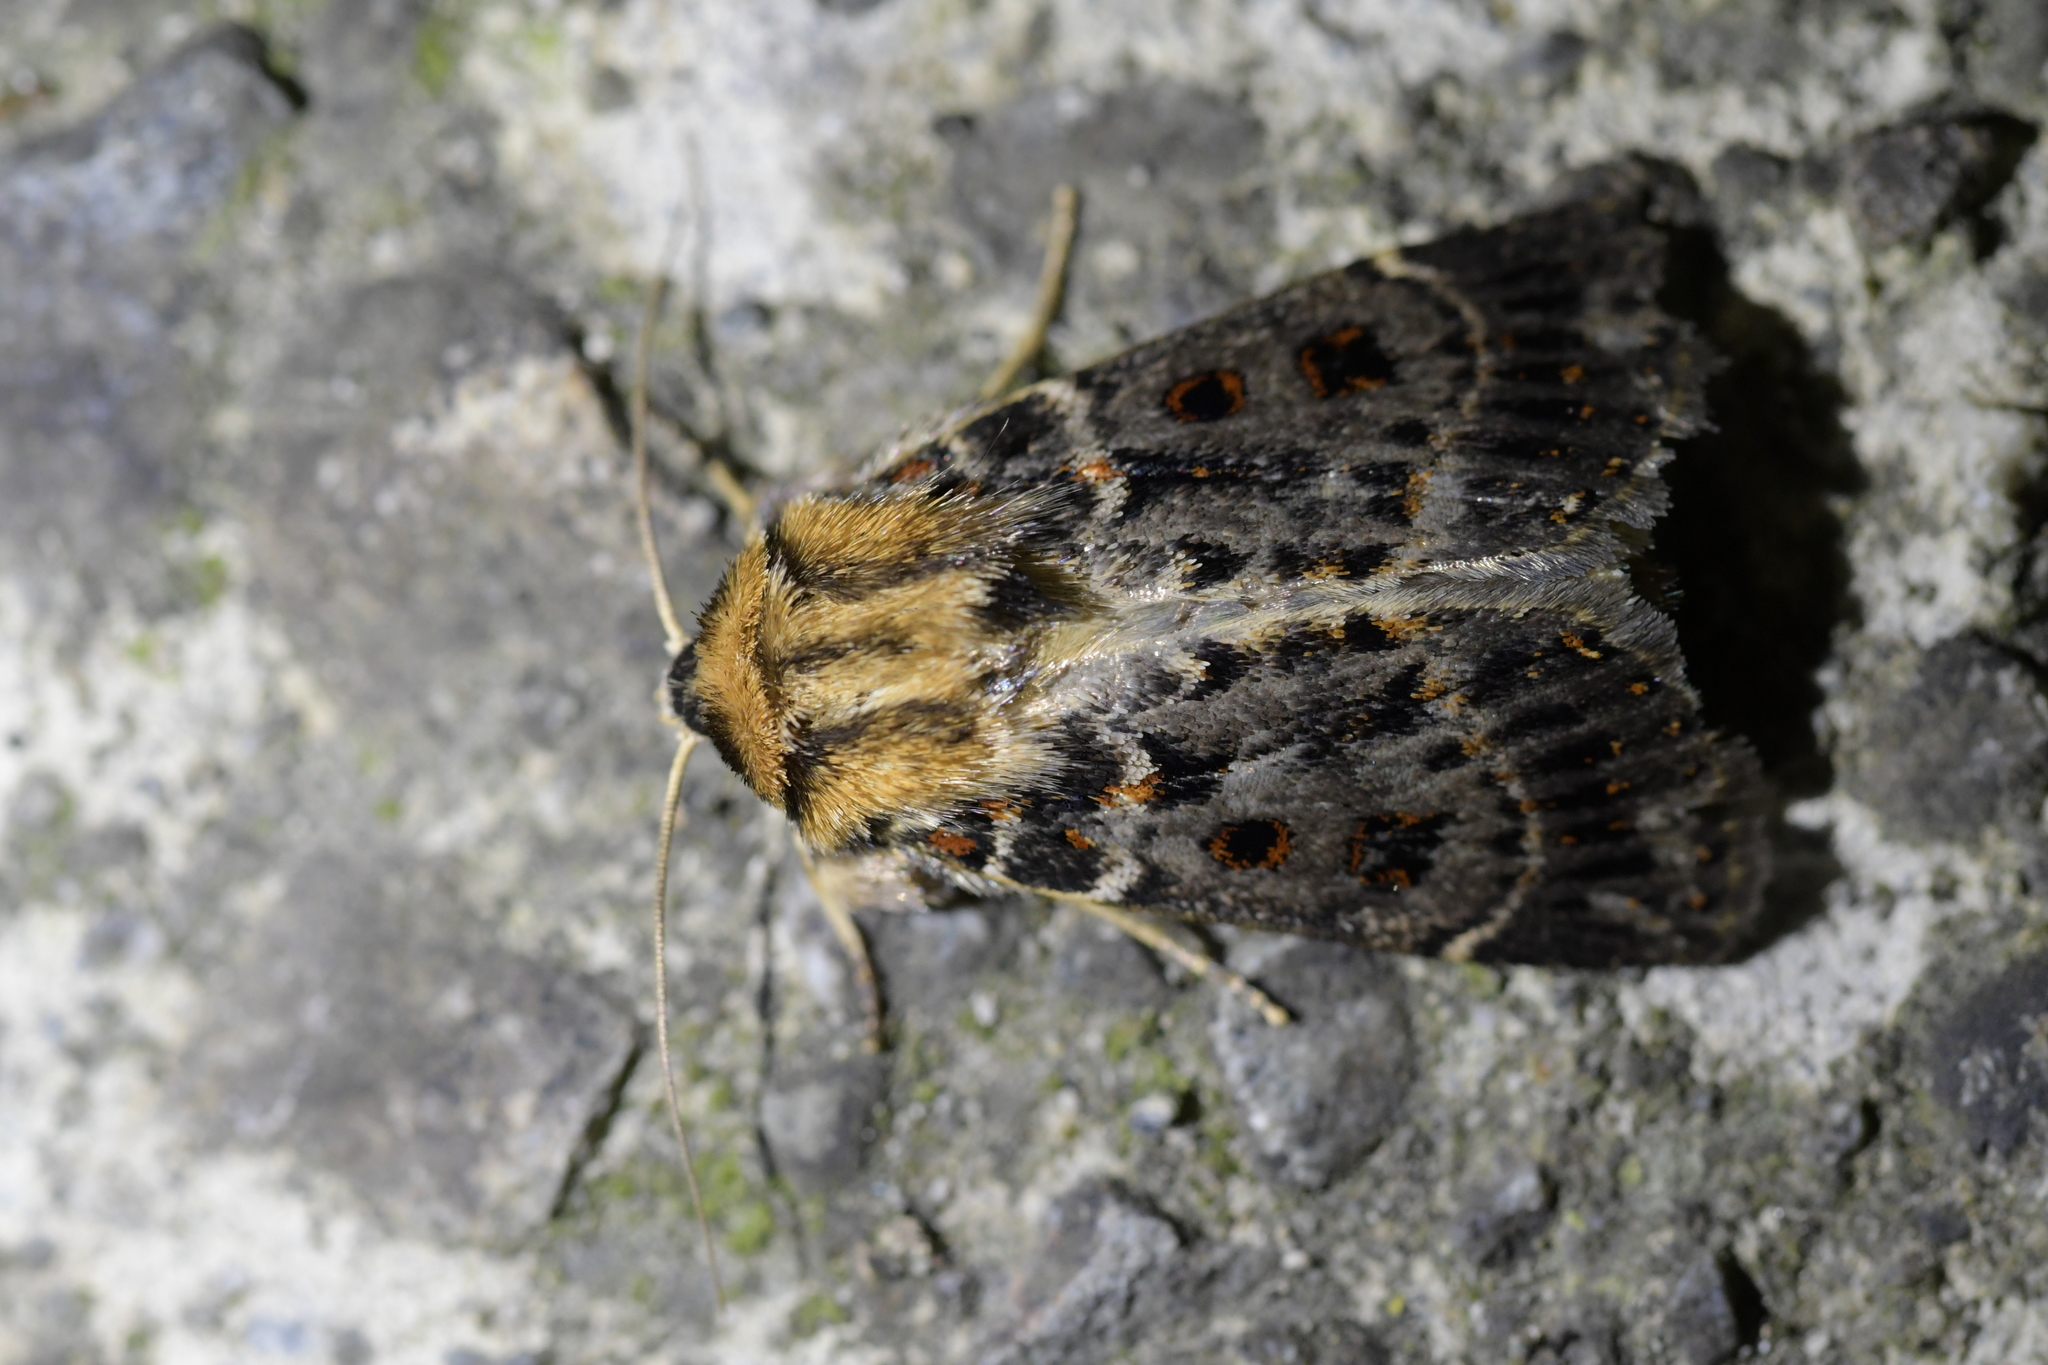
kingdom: Animalia
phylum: Arthropoda
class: Insecta
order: Lepidoptera
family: Noctuidae
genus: Proteuxoa
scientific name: Proteuxoa sanguinipuncta
